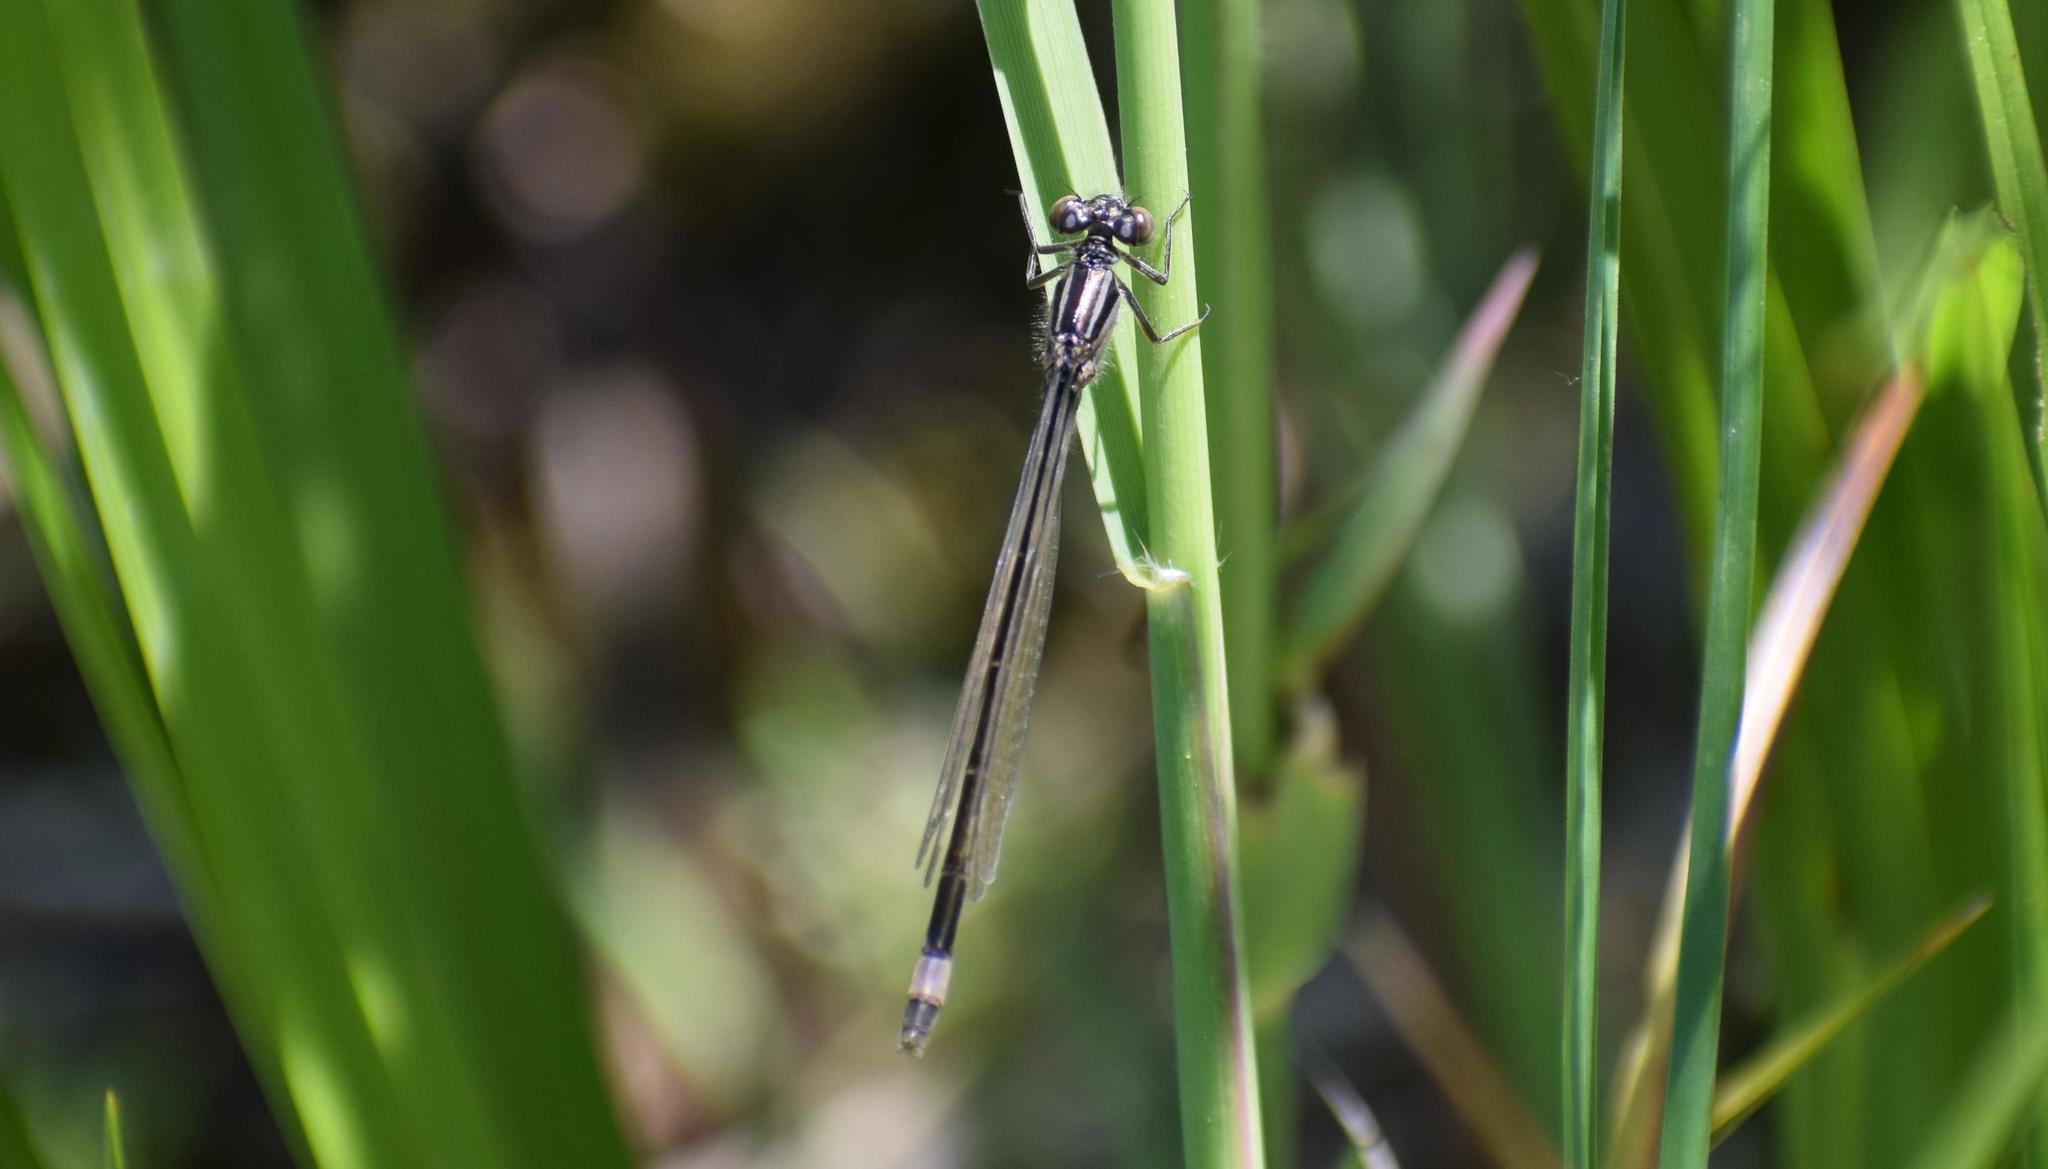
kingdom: Animalia
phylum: Arthropoda
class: Insecta
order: Odonata
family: Coenagrionidae
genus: Ischnura
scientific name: Ischnura elegans
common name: Blue-tailed damselfly
